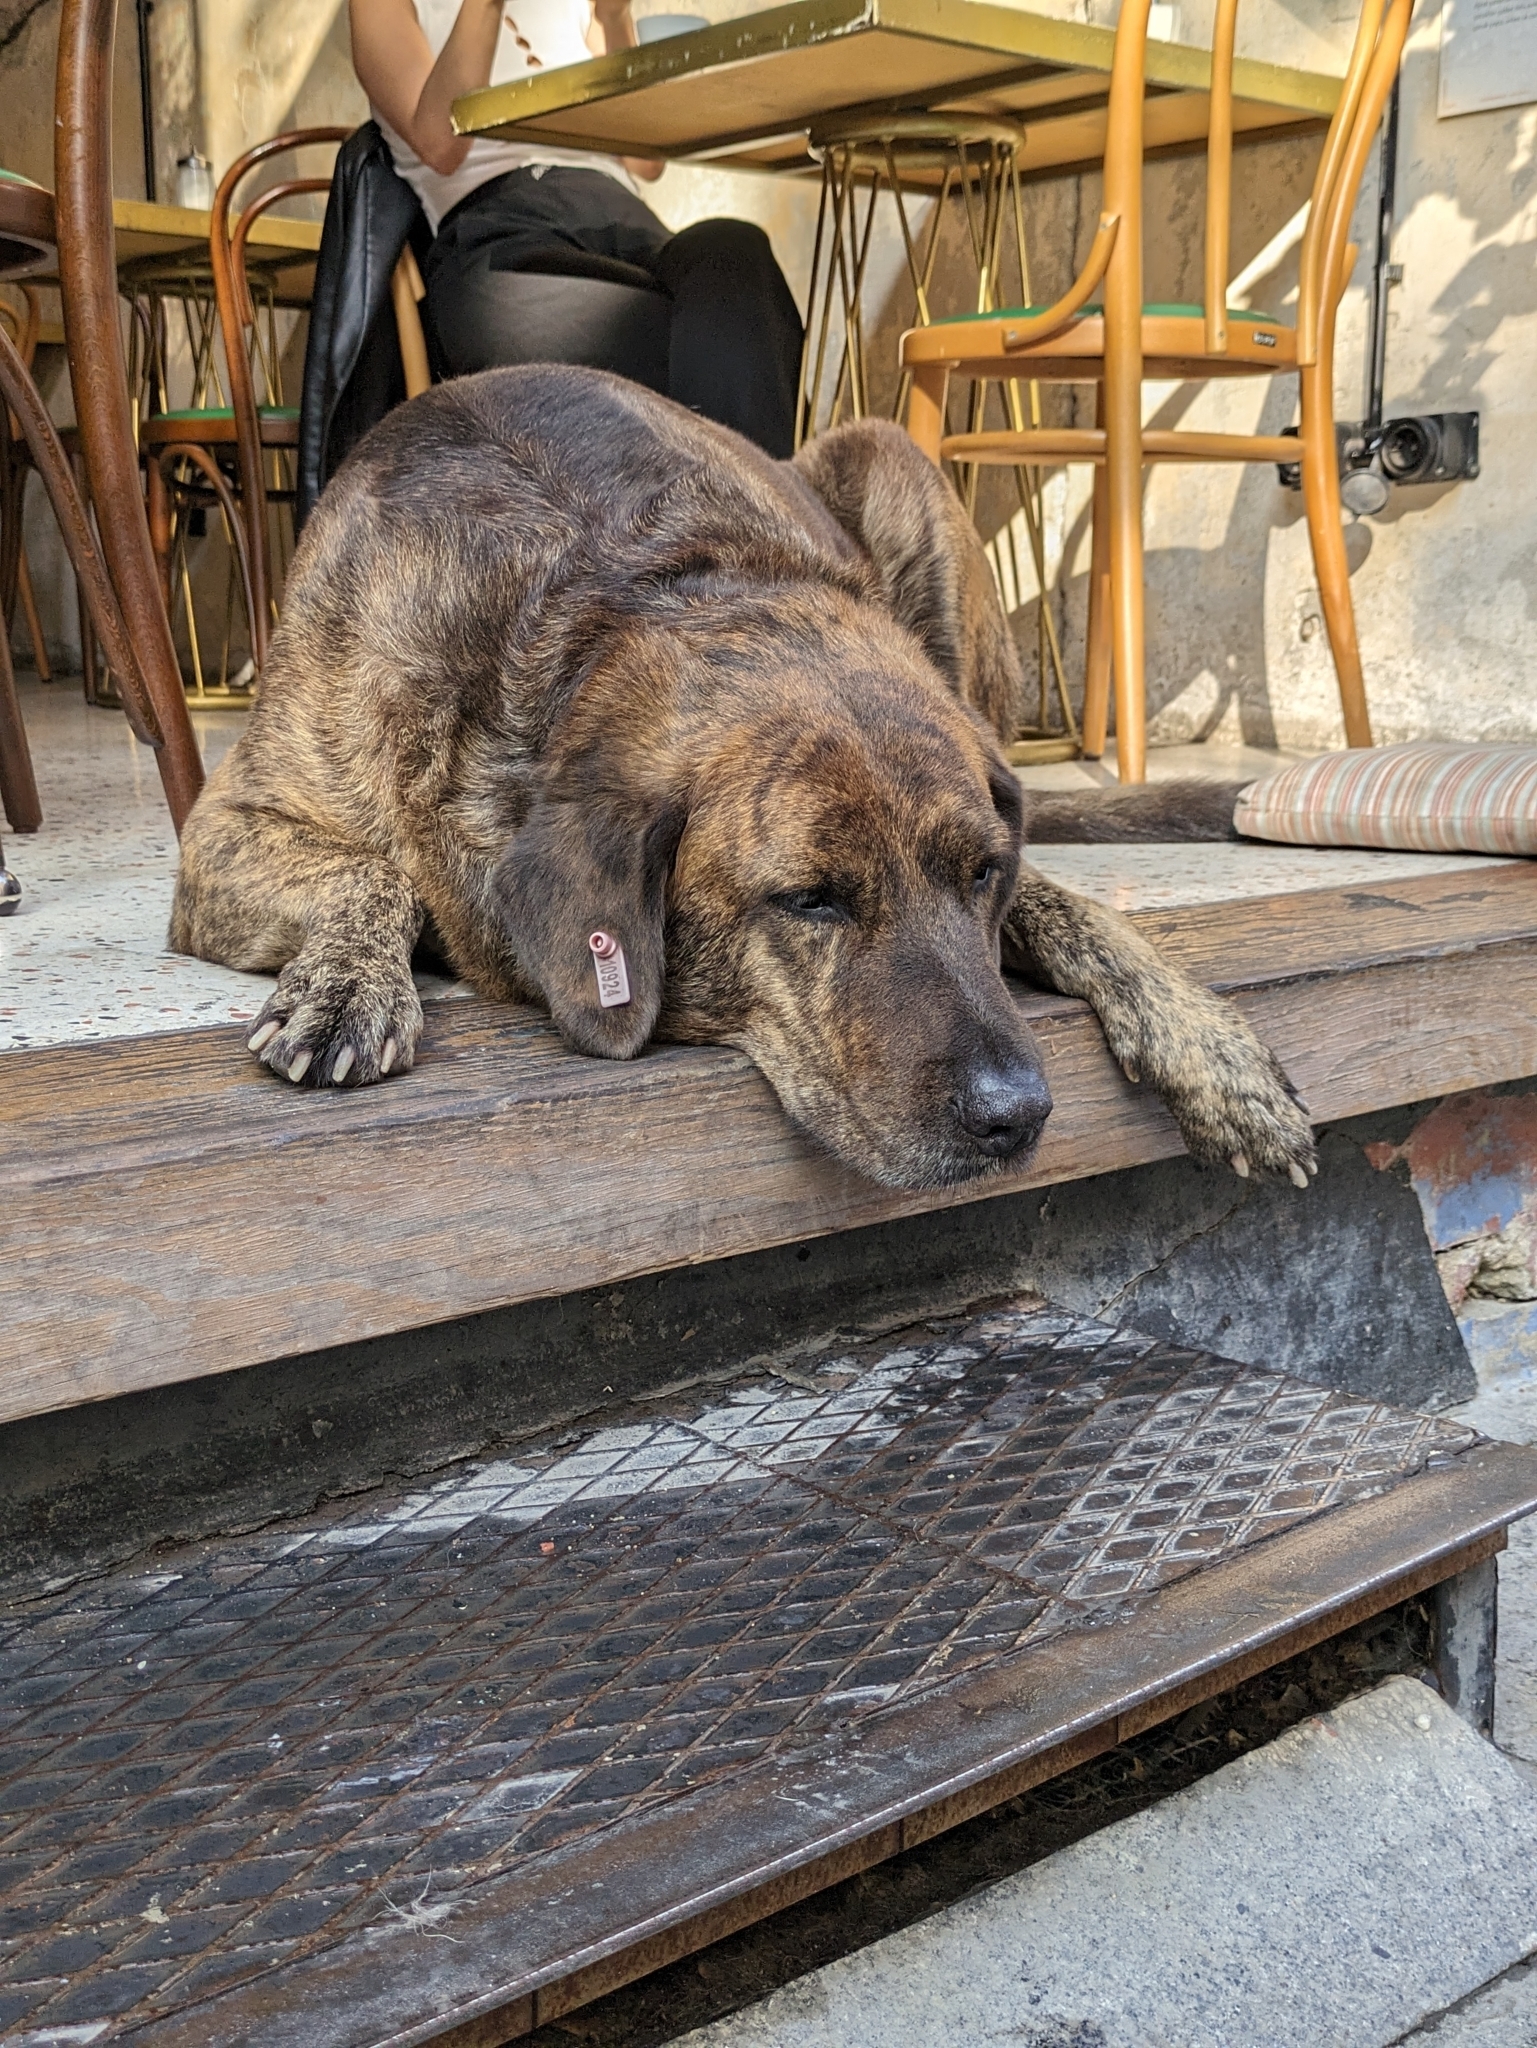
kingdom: Animalia
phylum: Chordata
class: Mammalia
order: Carnivora
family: Canidae
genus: Canis
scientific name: Canis lupus
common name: Gray wolf
